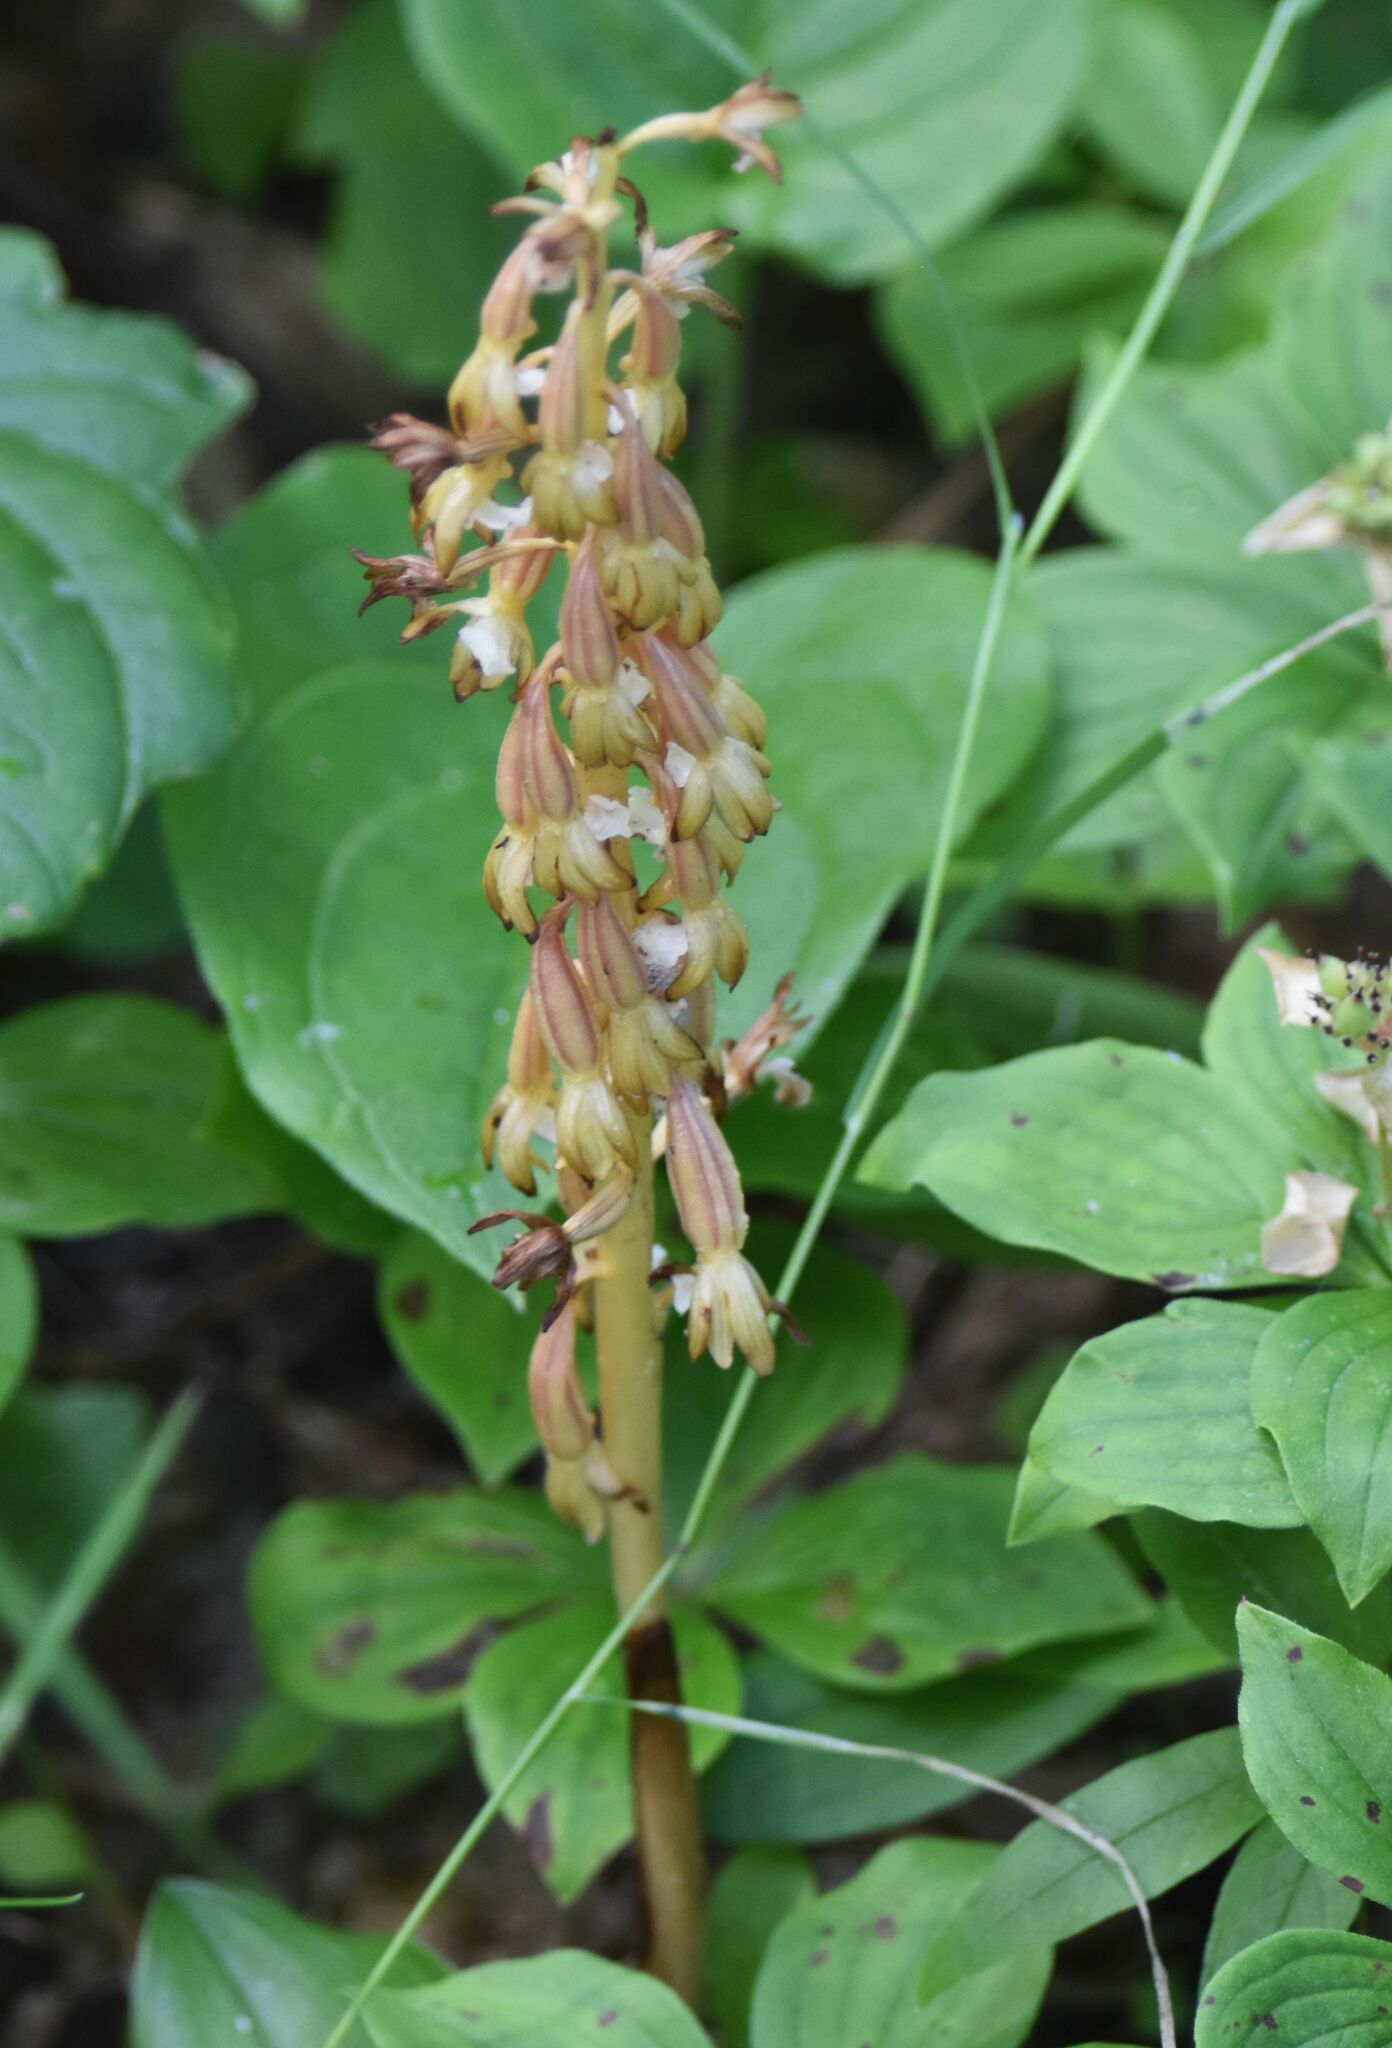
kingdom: Plantae
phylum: Tracheophyta
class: Liliopsida
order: Asparagales
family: Orchidaceae
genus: Corallorhiza
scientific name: Corallorhiza maculata
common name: Spotted coralroot
